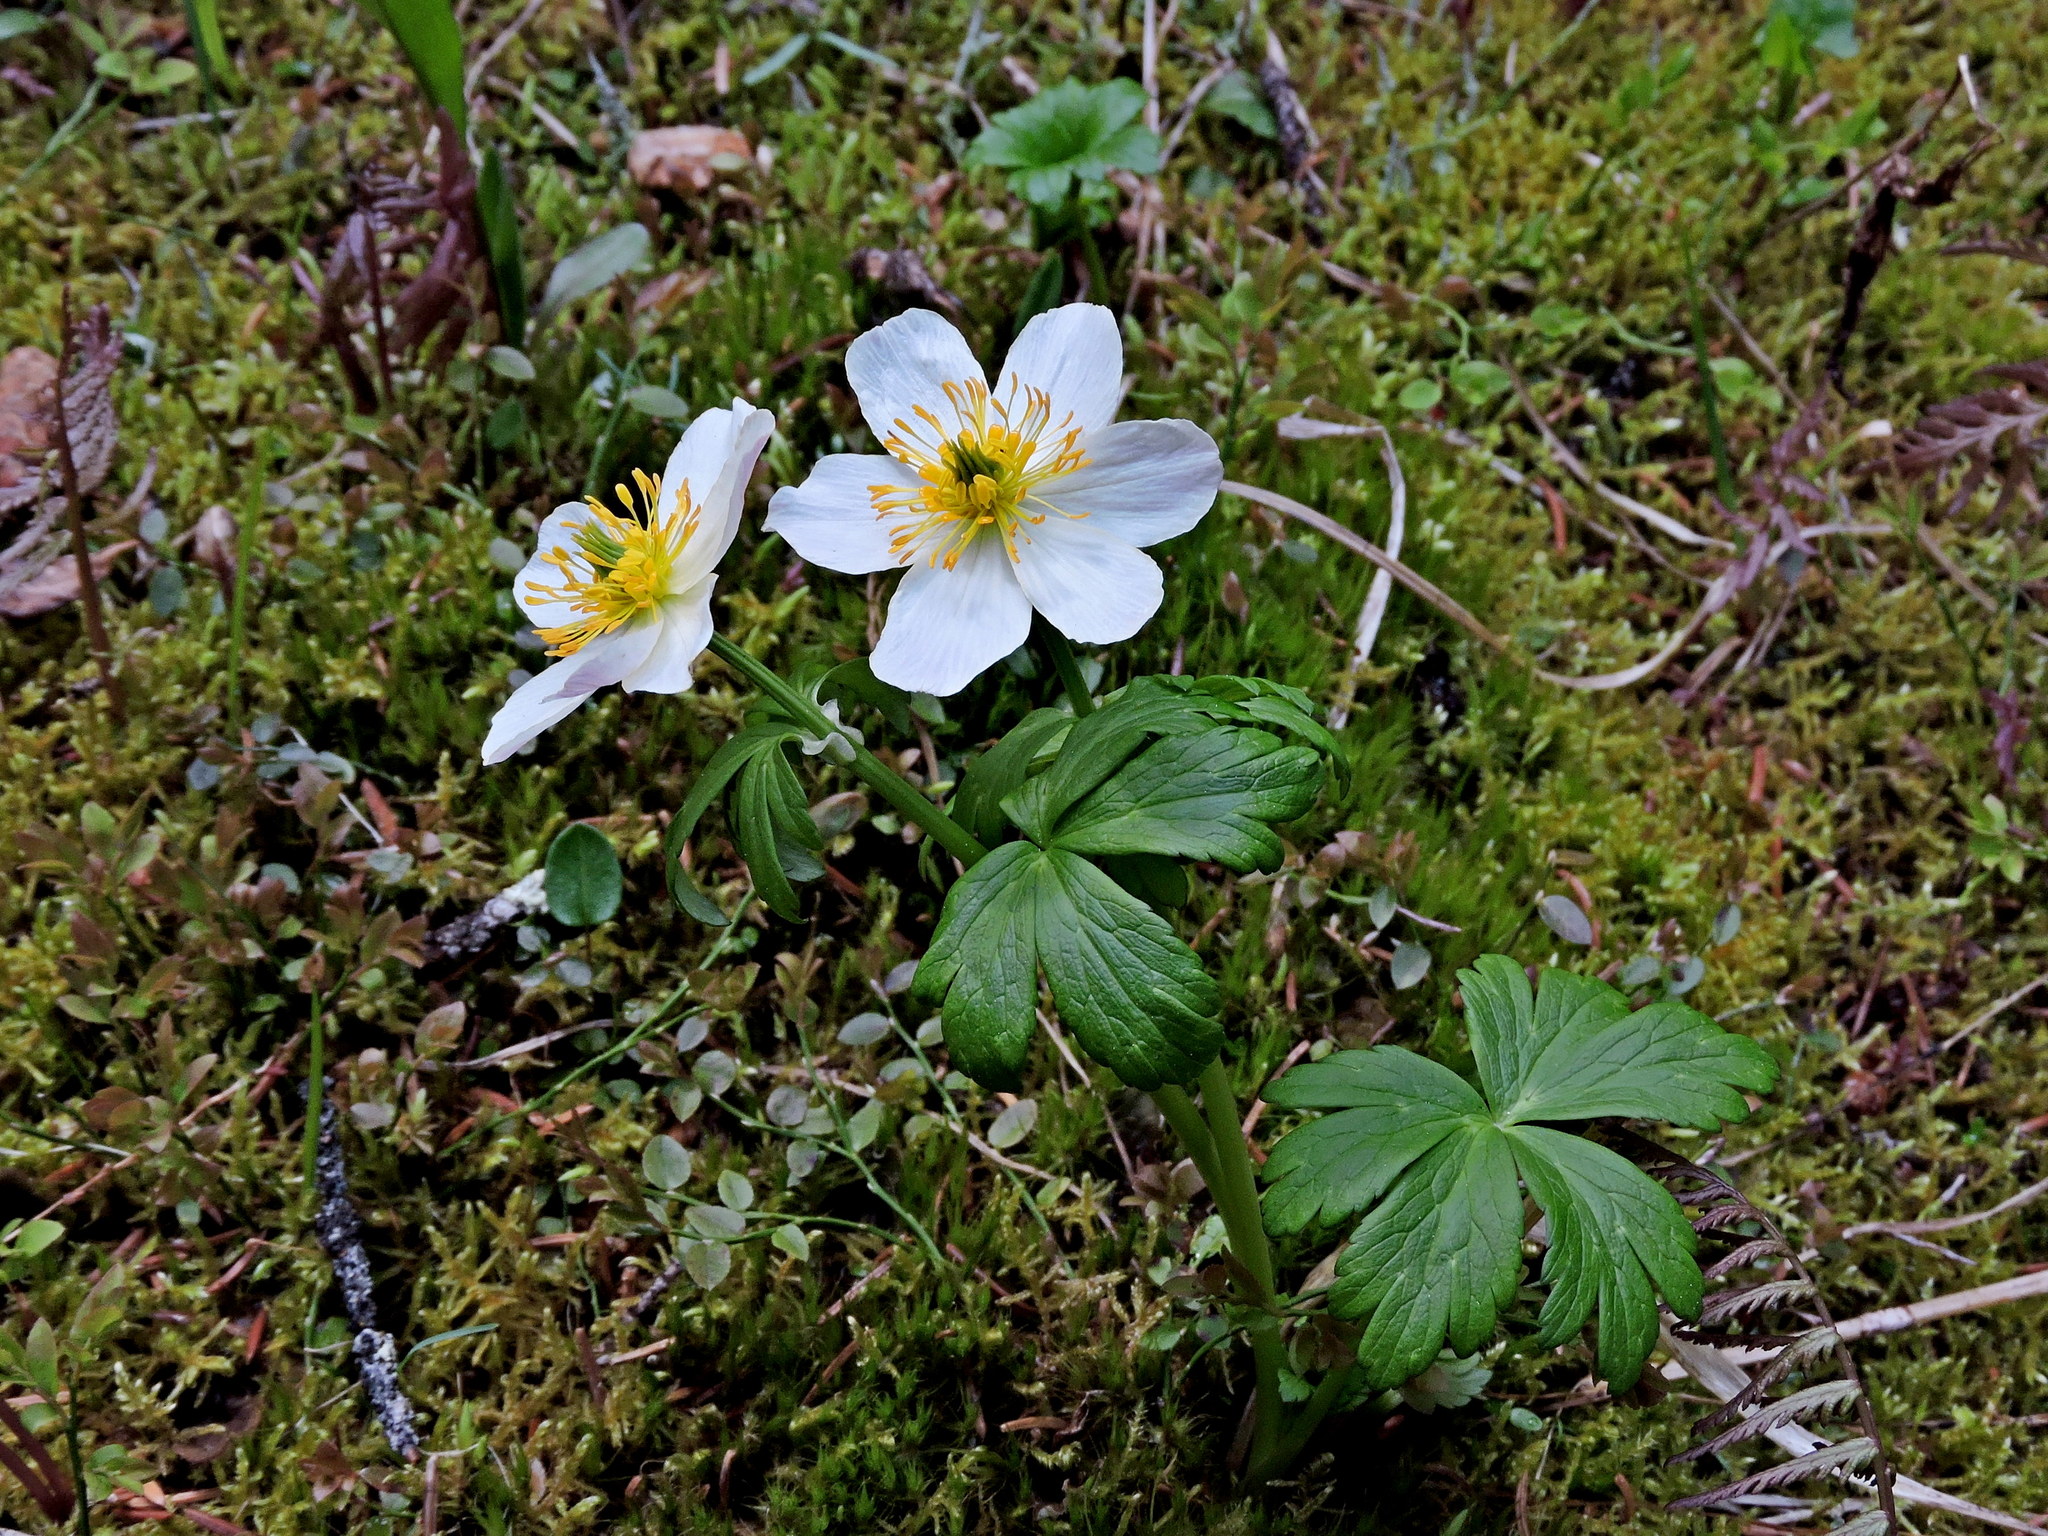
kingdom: Plantae
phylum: Tracheophyta
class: Magnoliopsida
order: Ranunculales
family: Ranunculaceae
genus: Trollius
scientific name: Trollius laxus
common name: American globeflower
